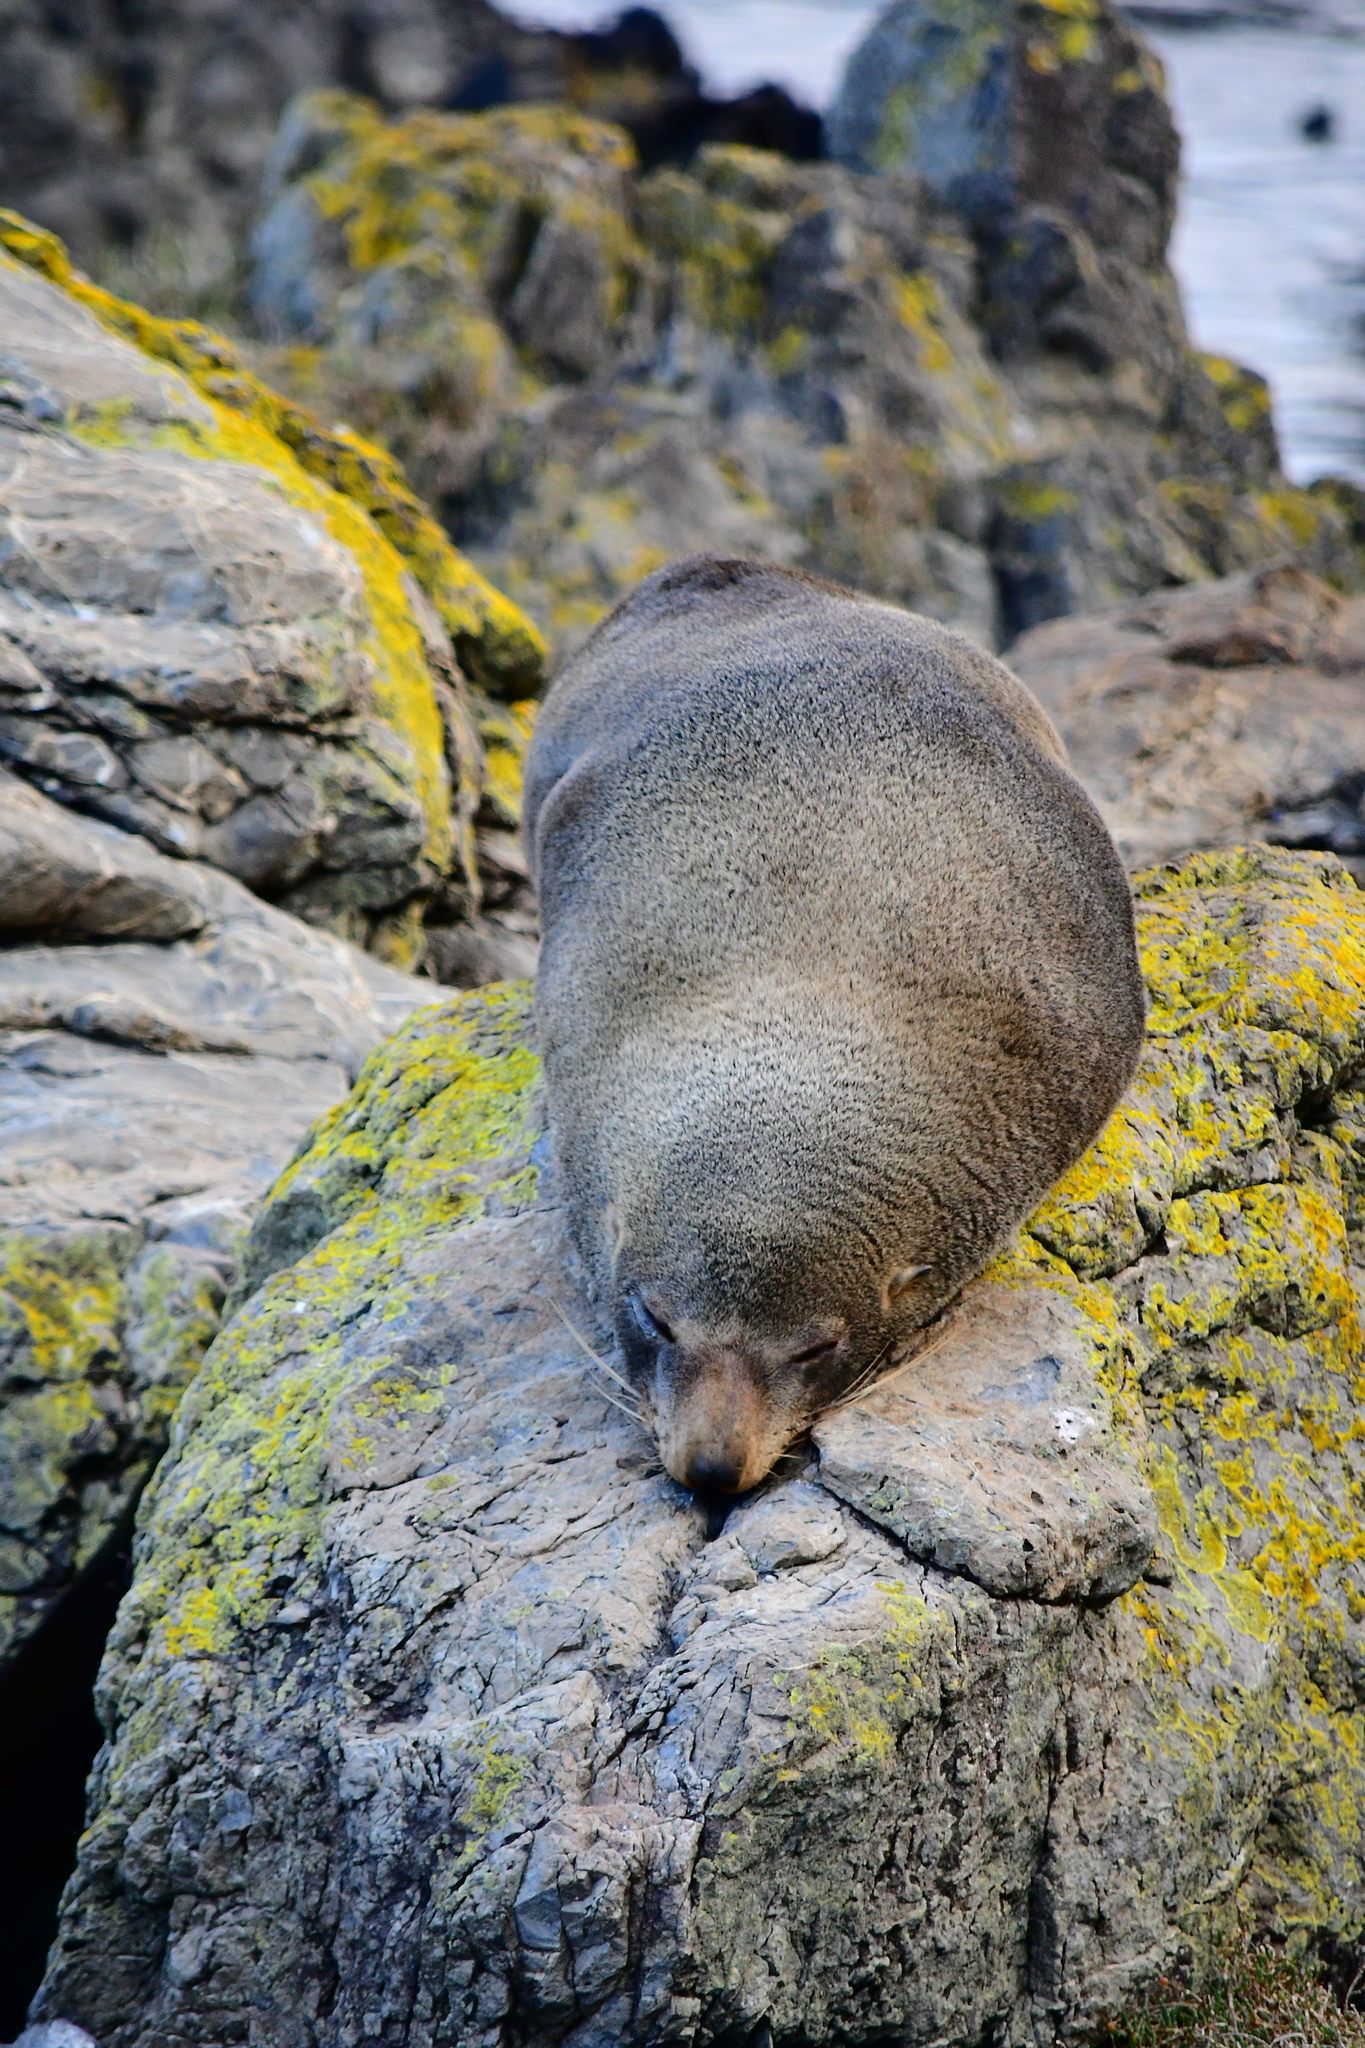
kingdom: Animalia
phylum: Chordata
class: Mammalia
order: Carnivora
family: Otariidae
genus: Arctocephalus
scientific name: Arctocephalus forsteri
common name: New zealand fur seal
